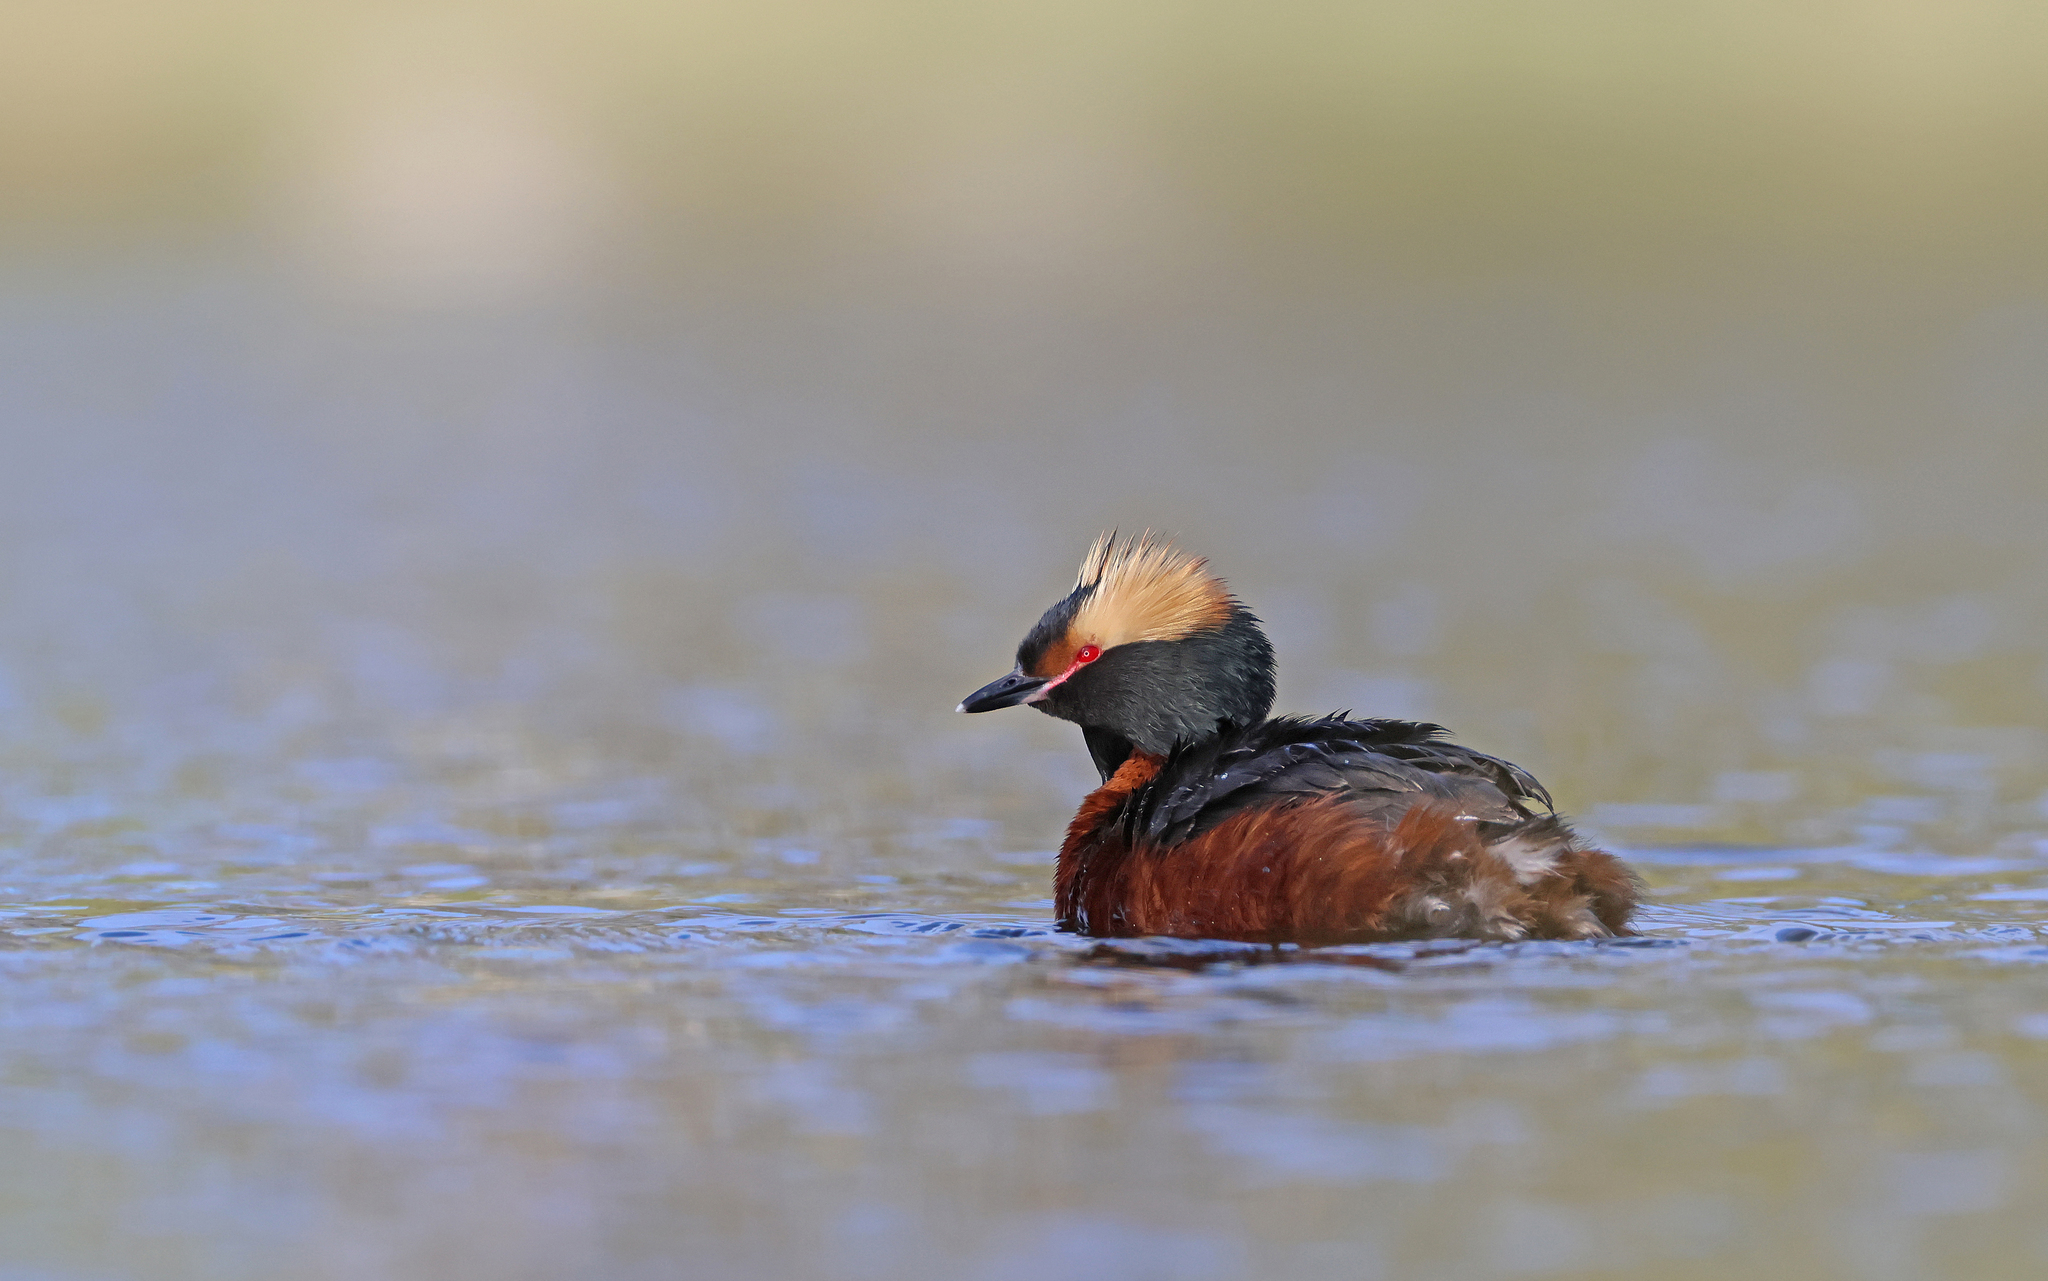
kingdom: Animalia
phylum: Chordata
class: Aves
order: Podicipediformes
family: Podicipedidae
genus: Podiceps
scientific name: Podiceps auritus
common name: Horned grebe
